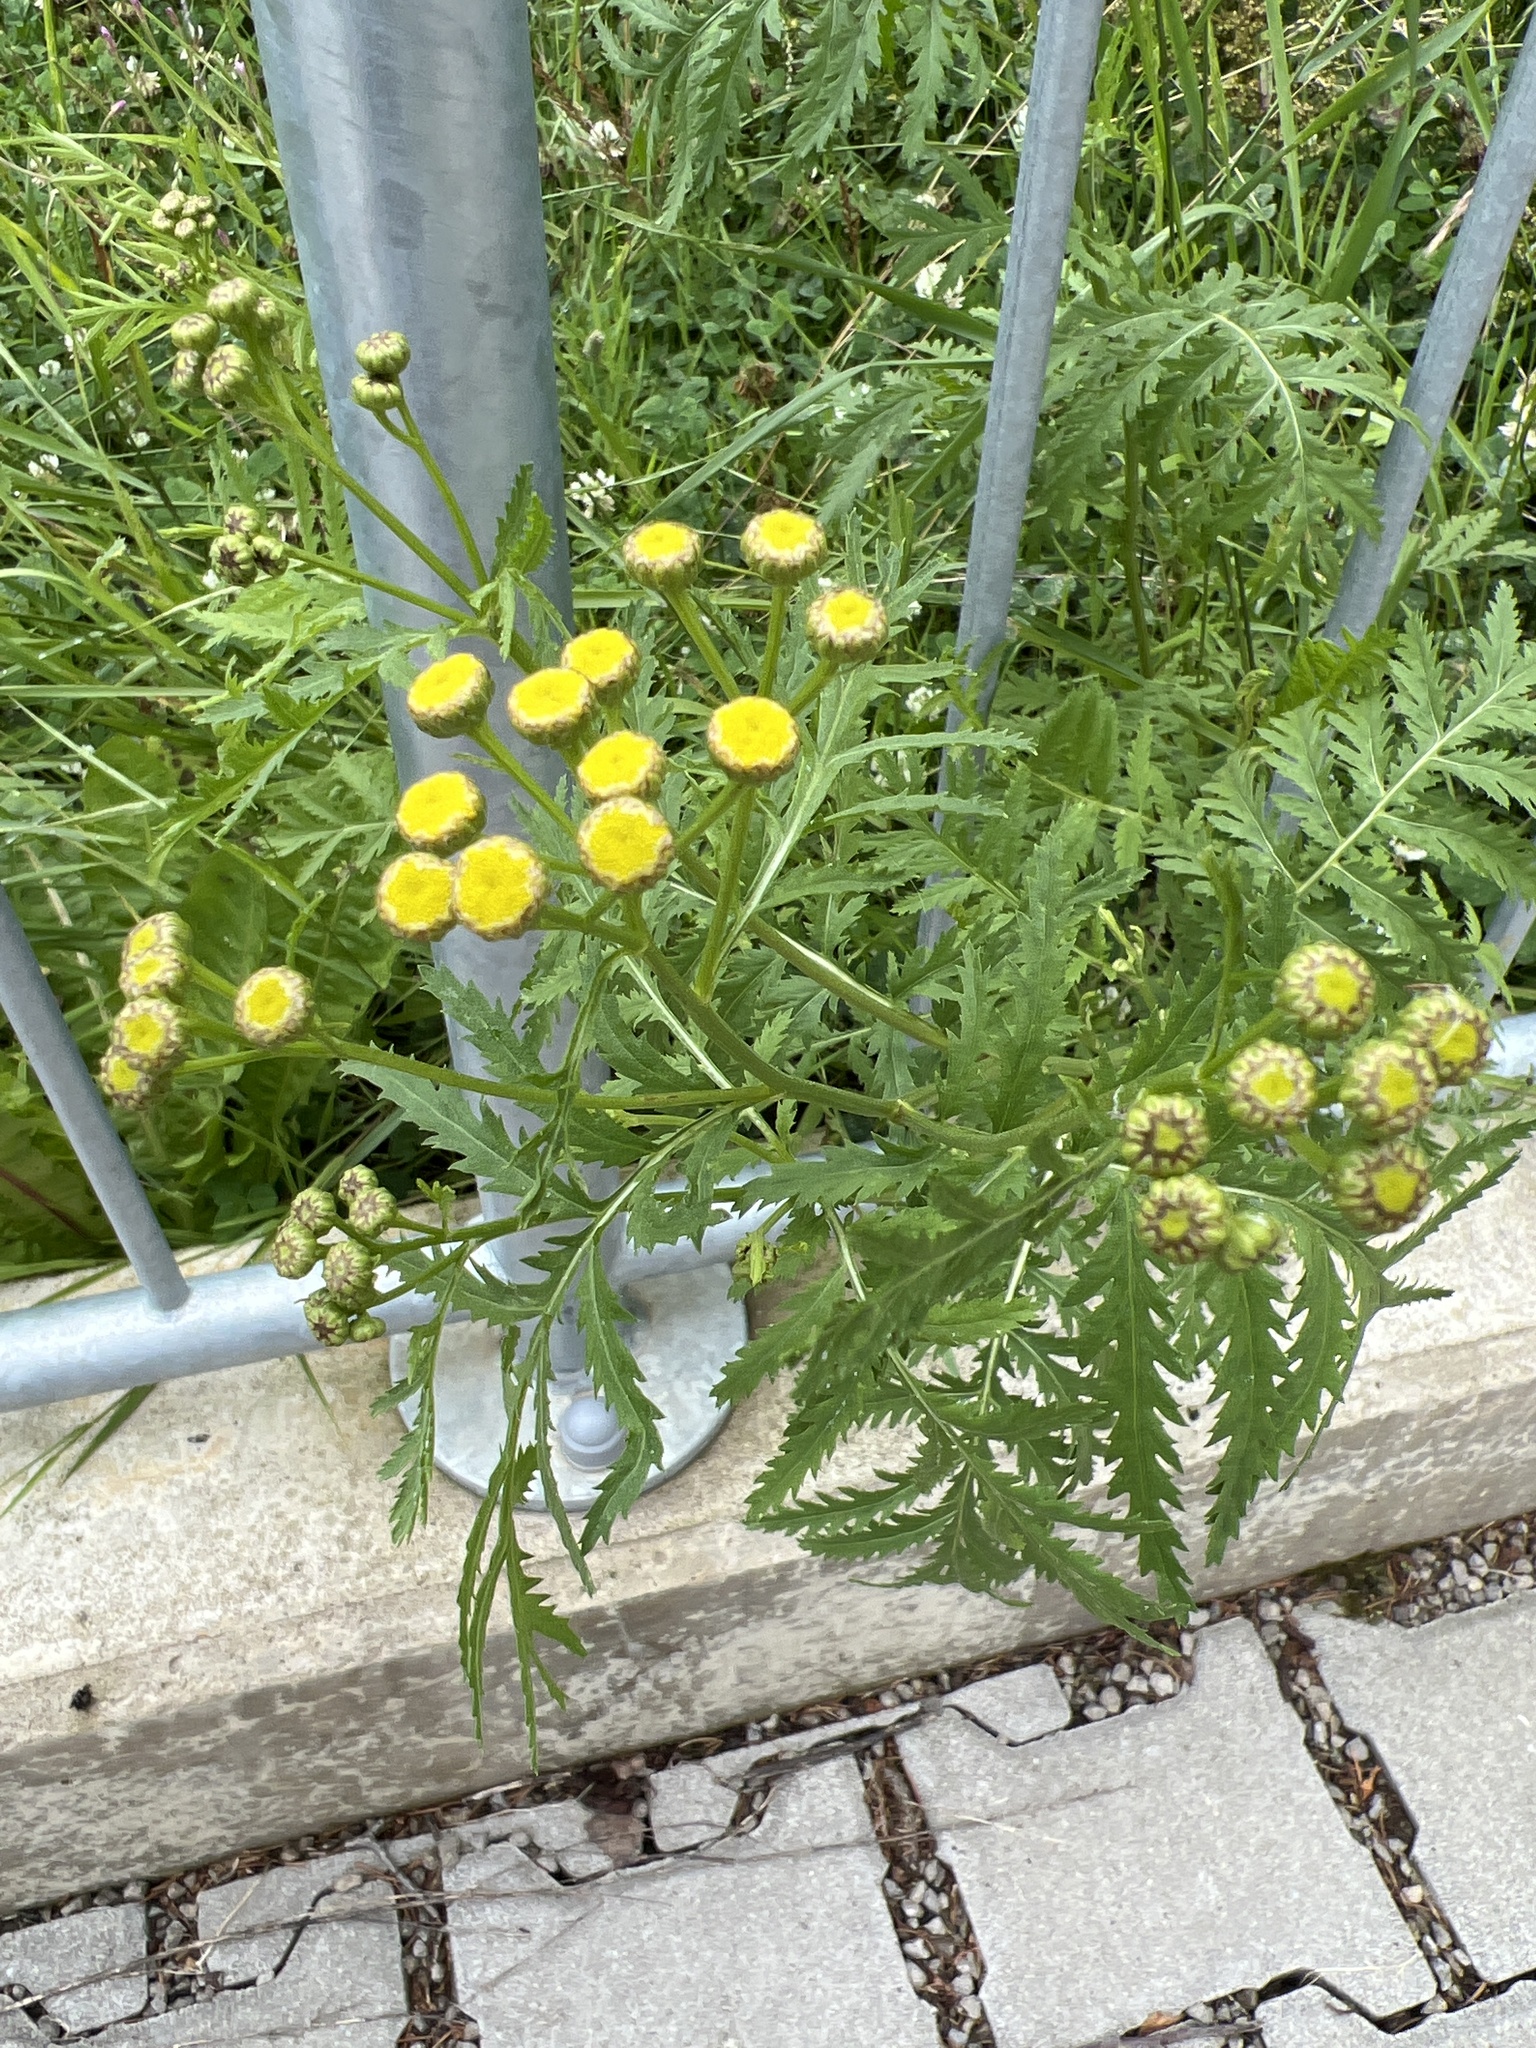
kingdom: Plantae
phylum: Tracheophyta
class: Magnoliopsida
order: Asterales
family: Asteraceae
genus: Tanacetum
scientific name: Tanacetum vulgare
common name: Common tansy
